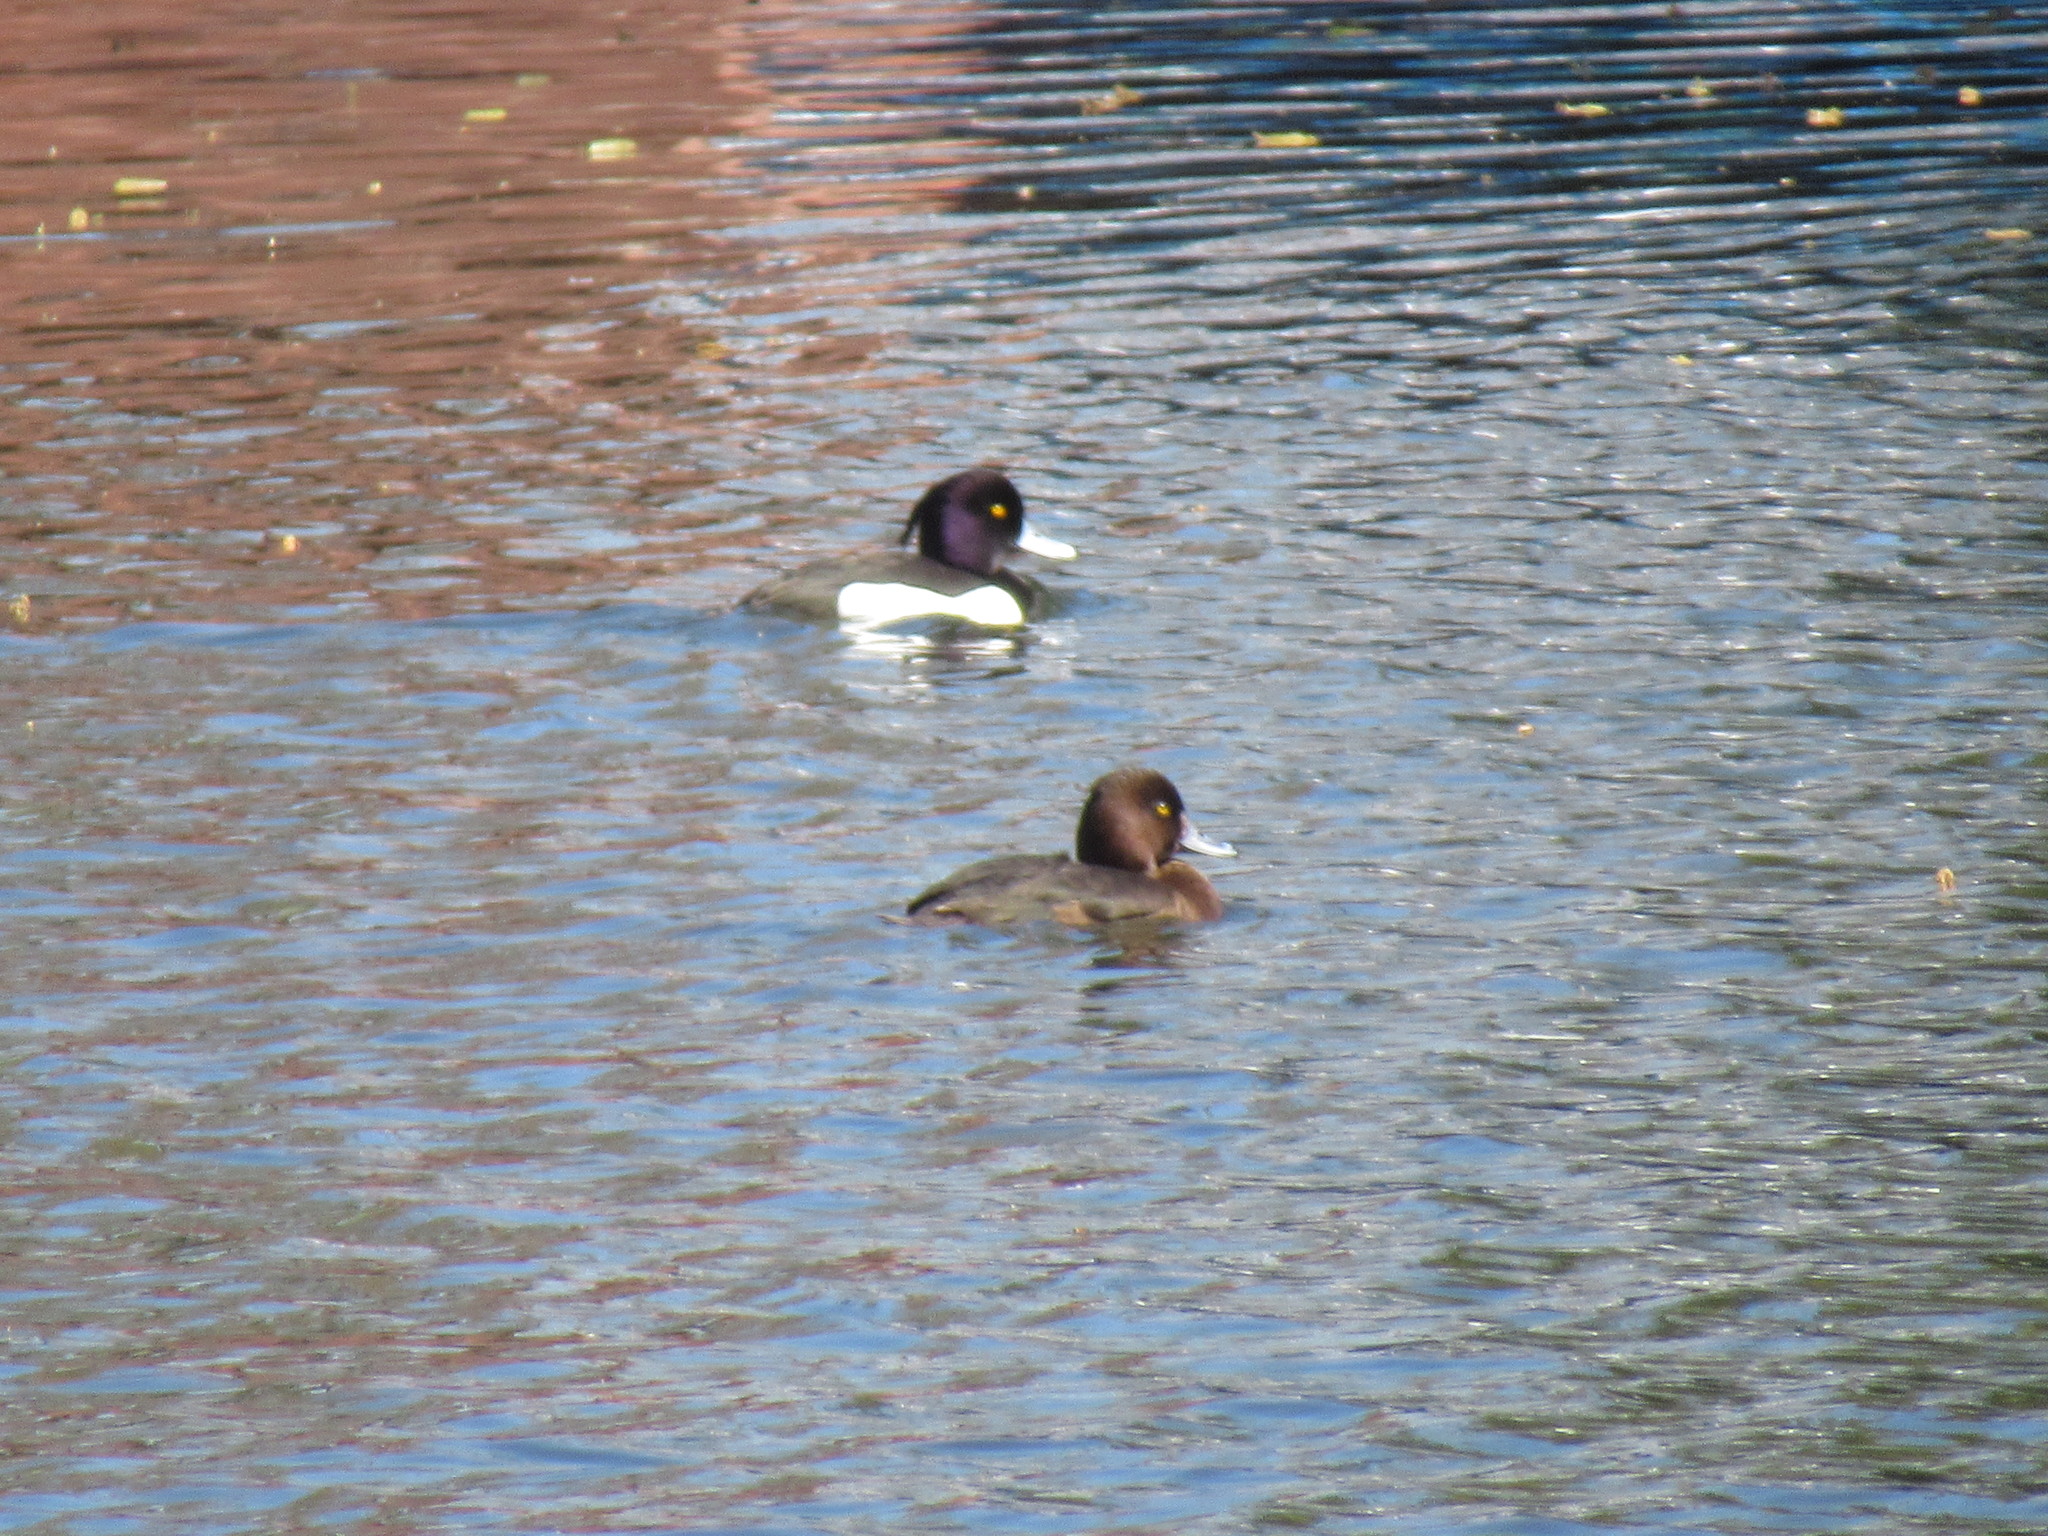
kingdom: Animalia
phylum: Chordata
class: Aves
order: Anseriformes
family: Anatidae
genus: Aythya
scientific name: Aythya fuligula
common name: Tufted duck
